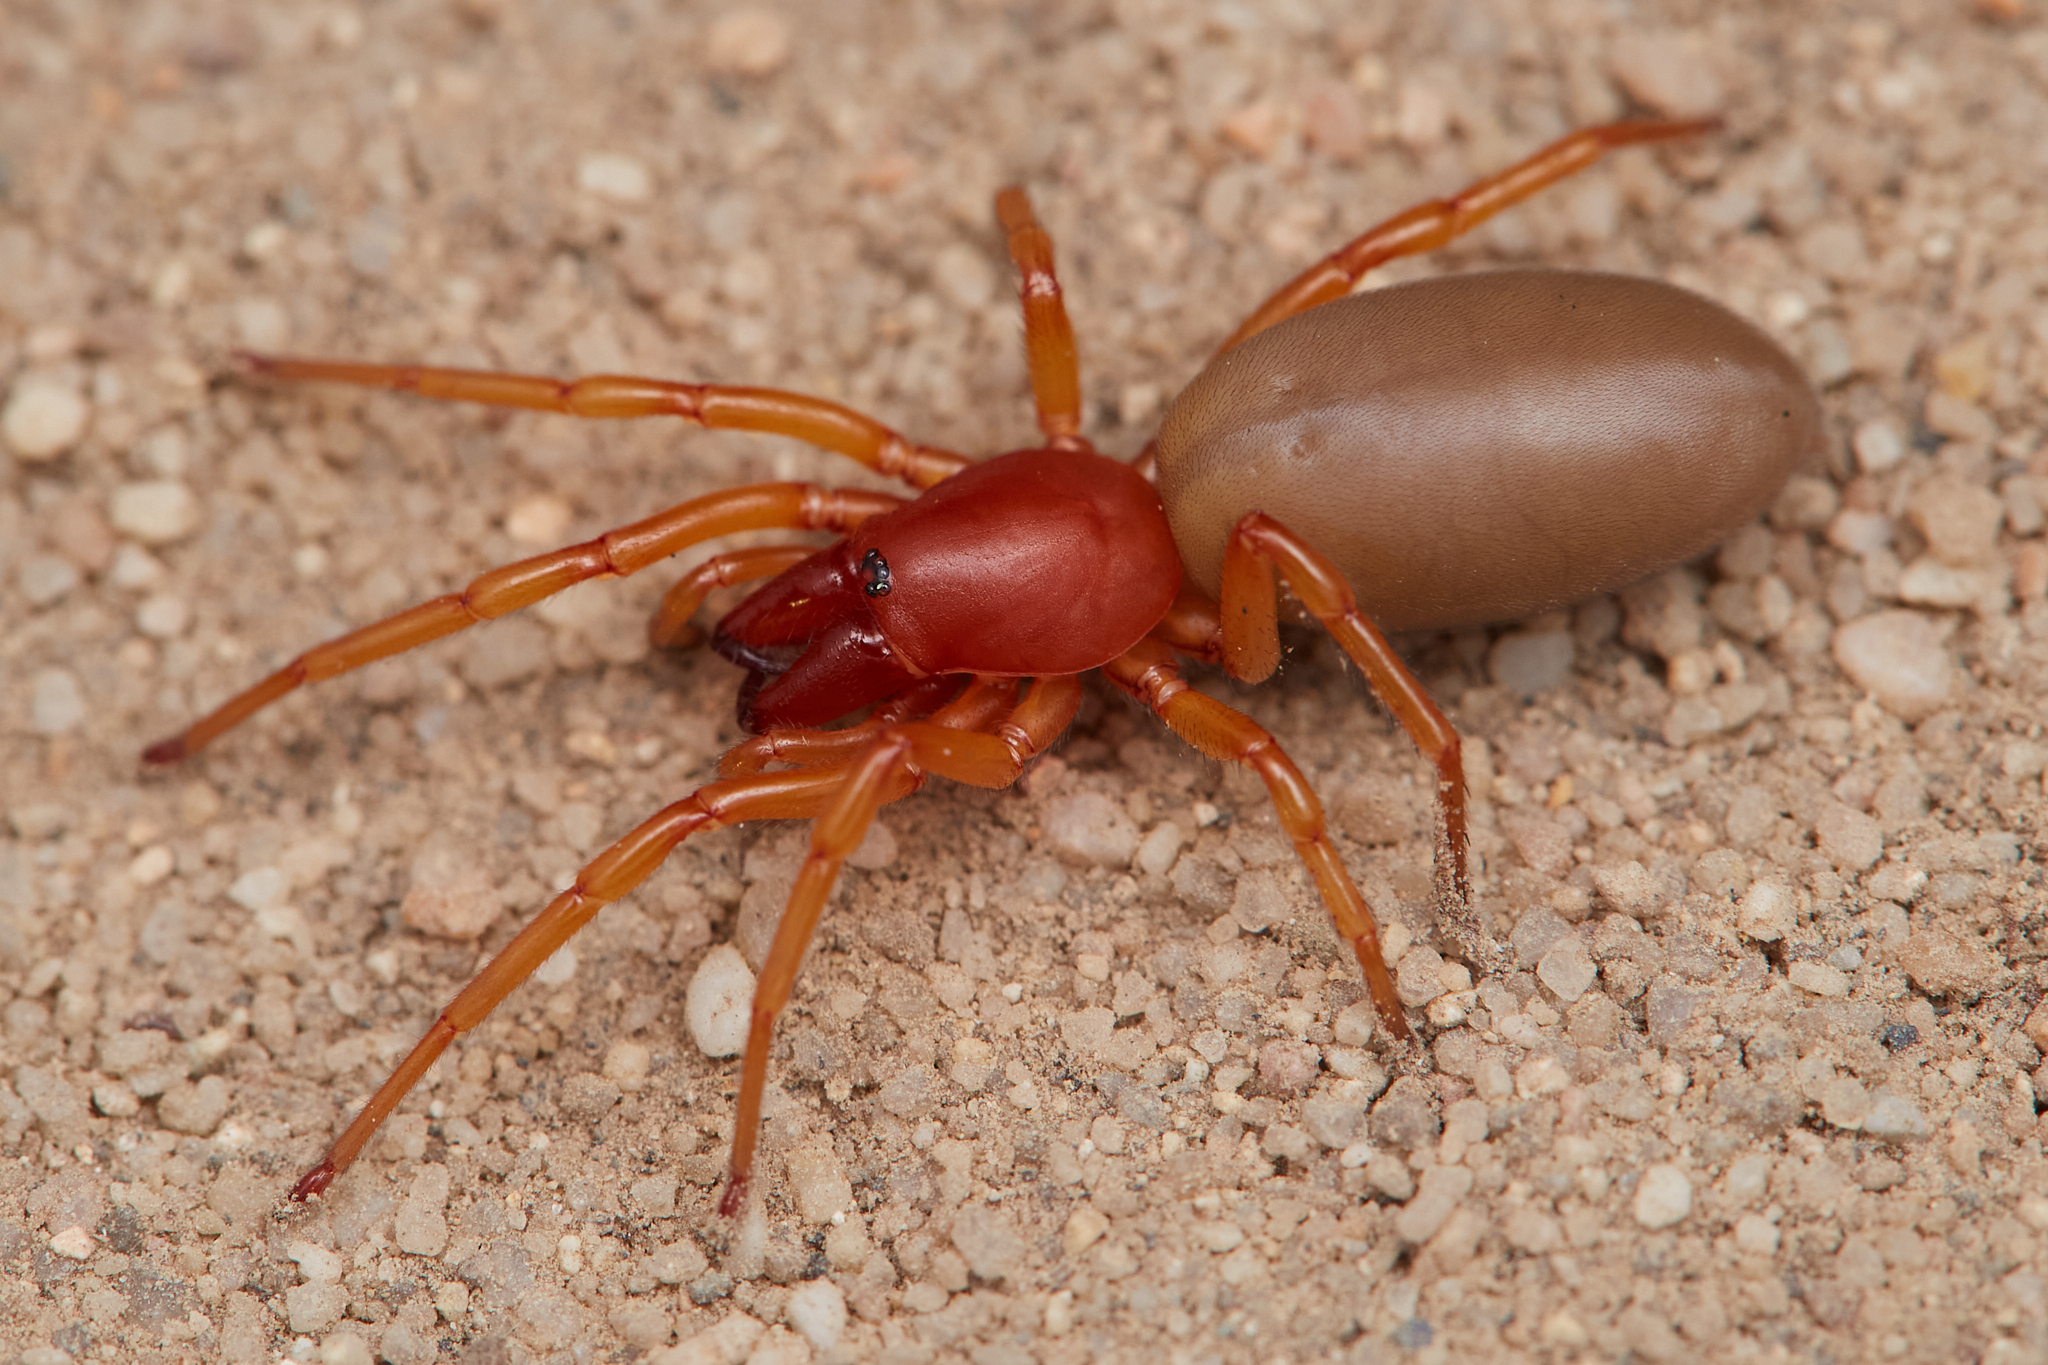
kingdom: Animalia
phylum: Arthropoda
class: Arachnida
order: Araneae
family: Dysderidae
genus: Dysdera
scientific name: Dysdera crocata
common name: Woodlouse spider
